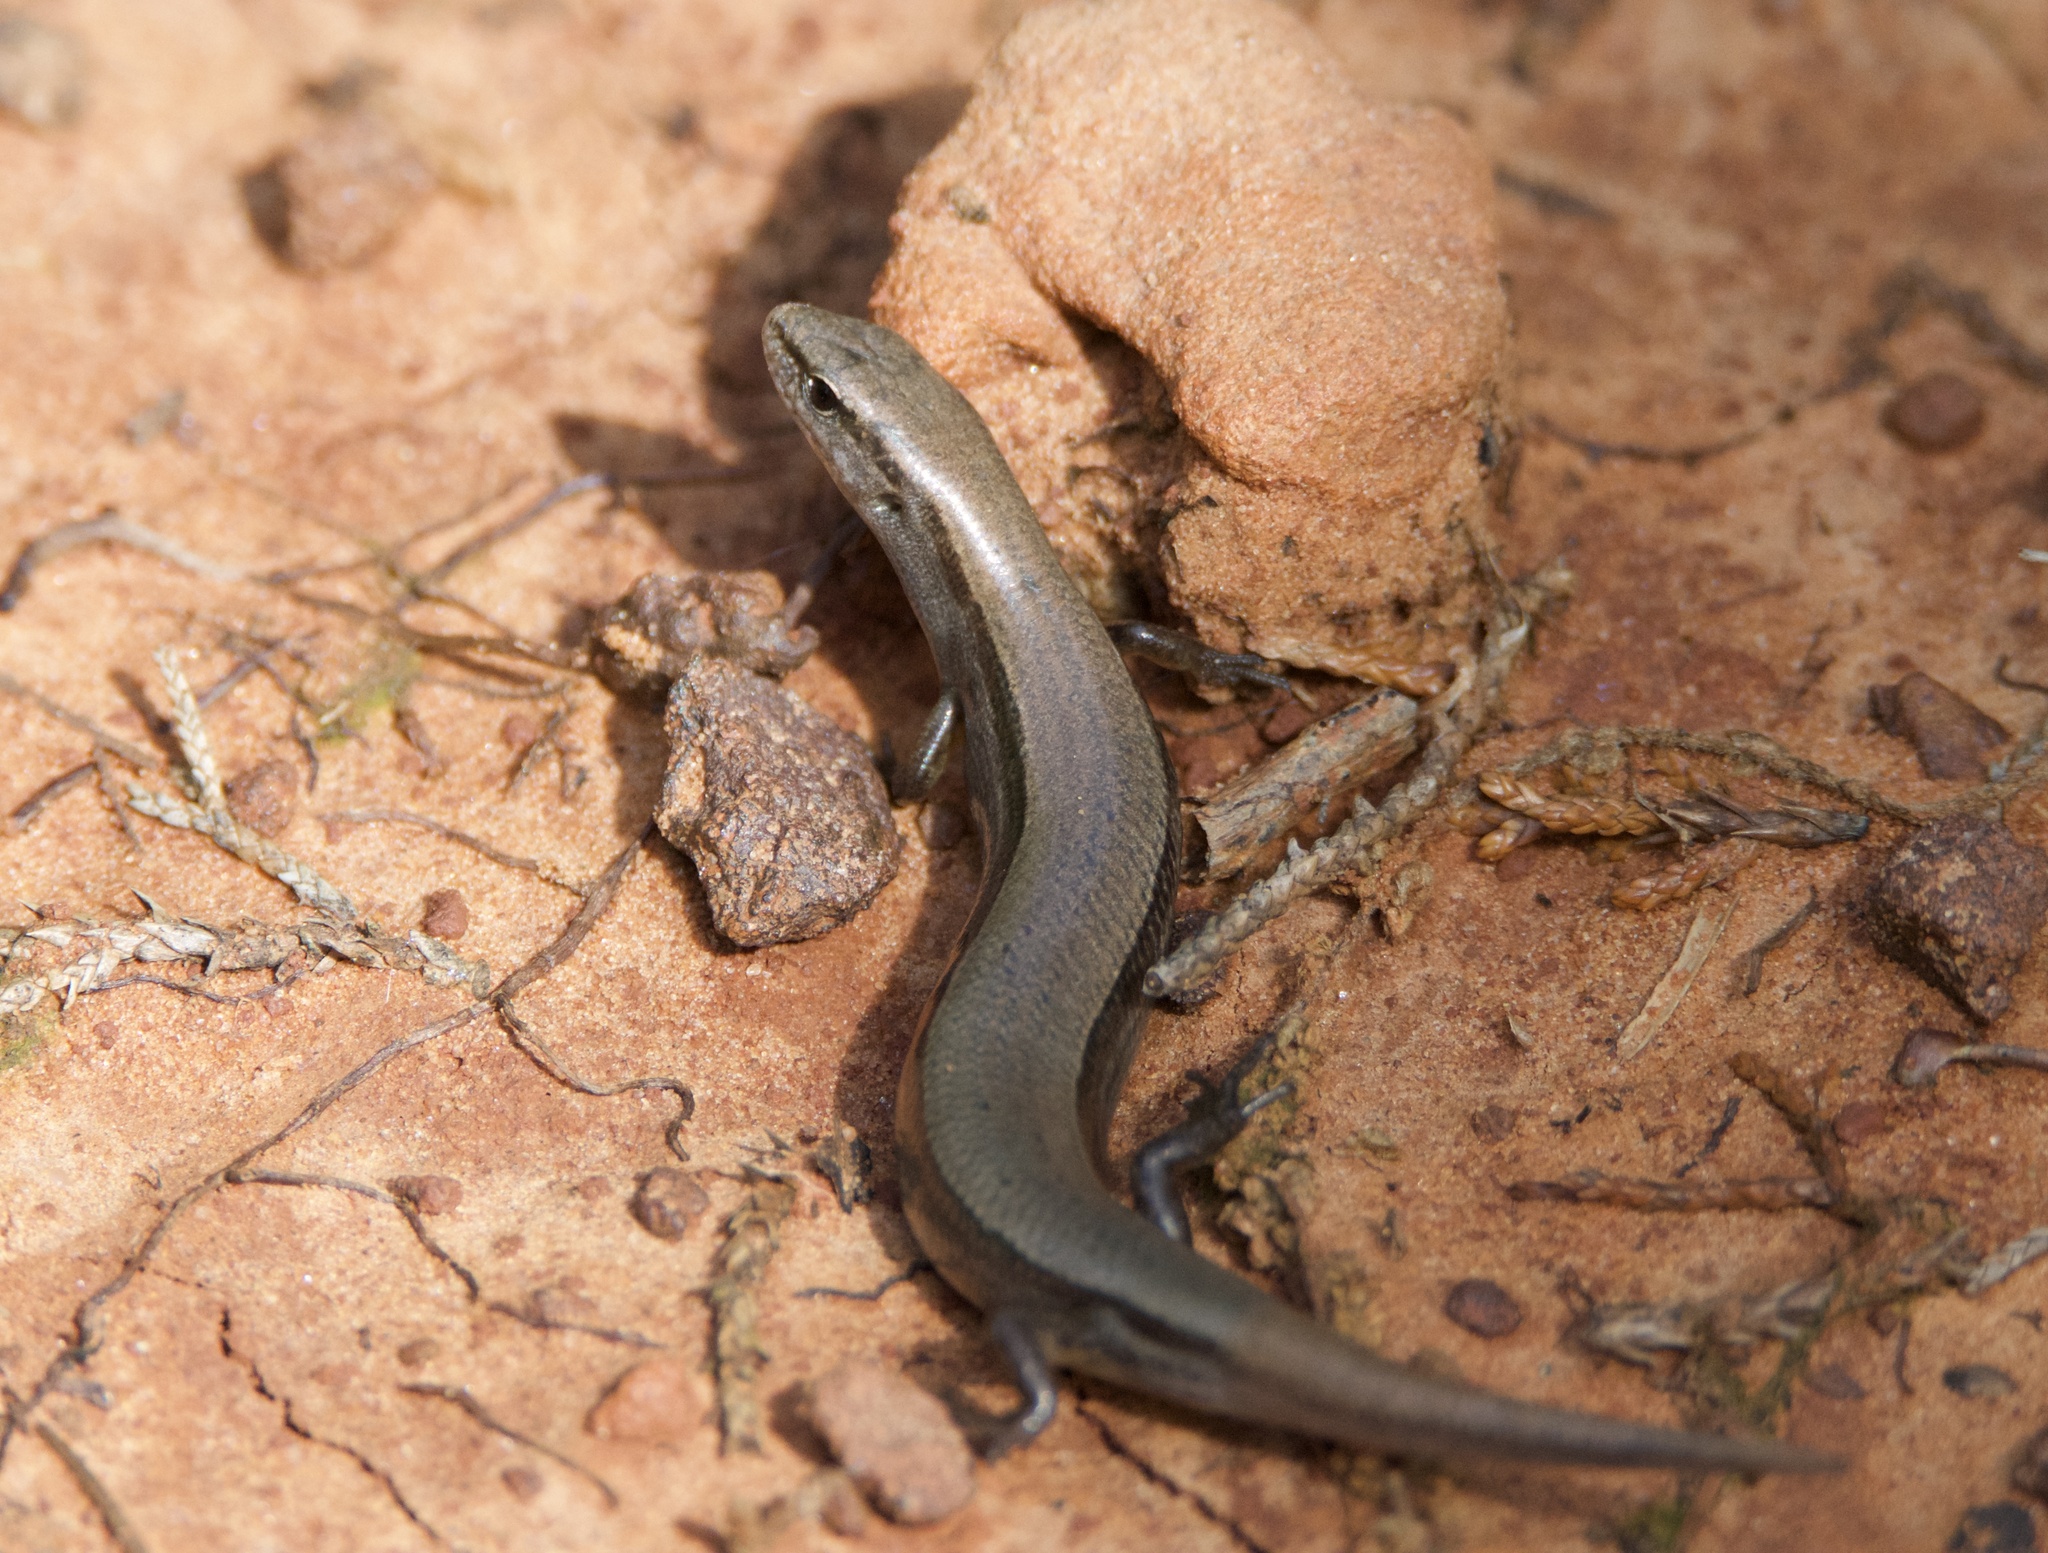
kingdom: Animalia
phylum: Chordata
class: Squamata
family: Scincidae
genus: Scincella
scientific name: Scincella lateralis
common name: Ground skink
